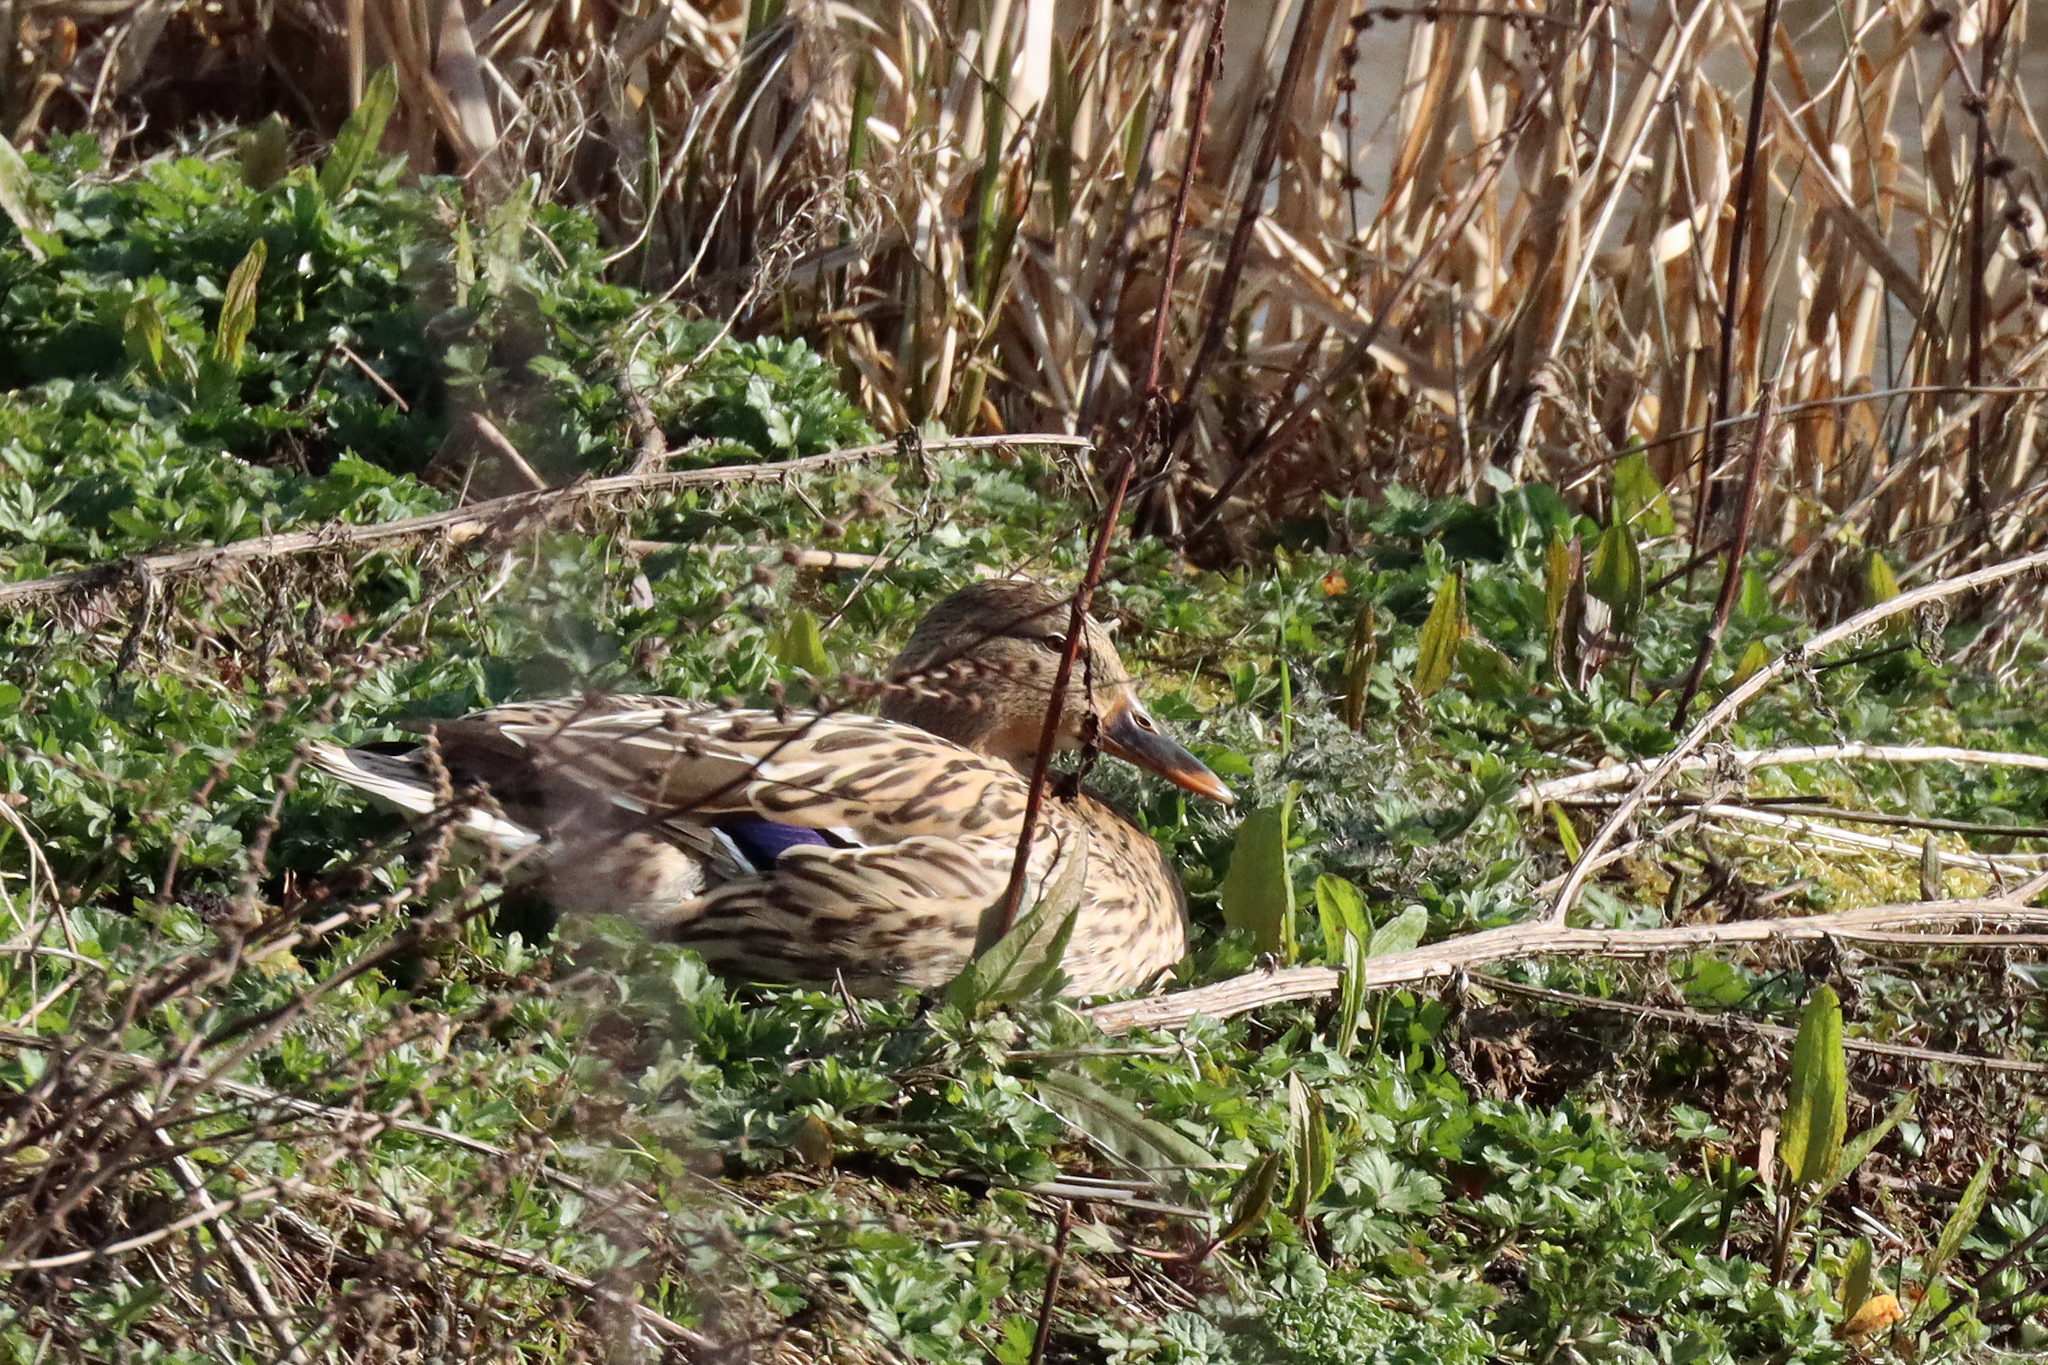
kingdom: Animalia
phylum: Chordata
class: Aves
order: Anseriformes
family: Anatidae
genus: Anas
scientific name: Anas platyrhynchos
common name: Mallard
